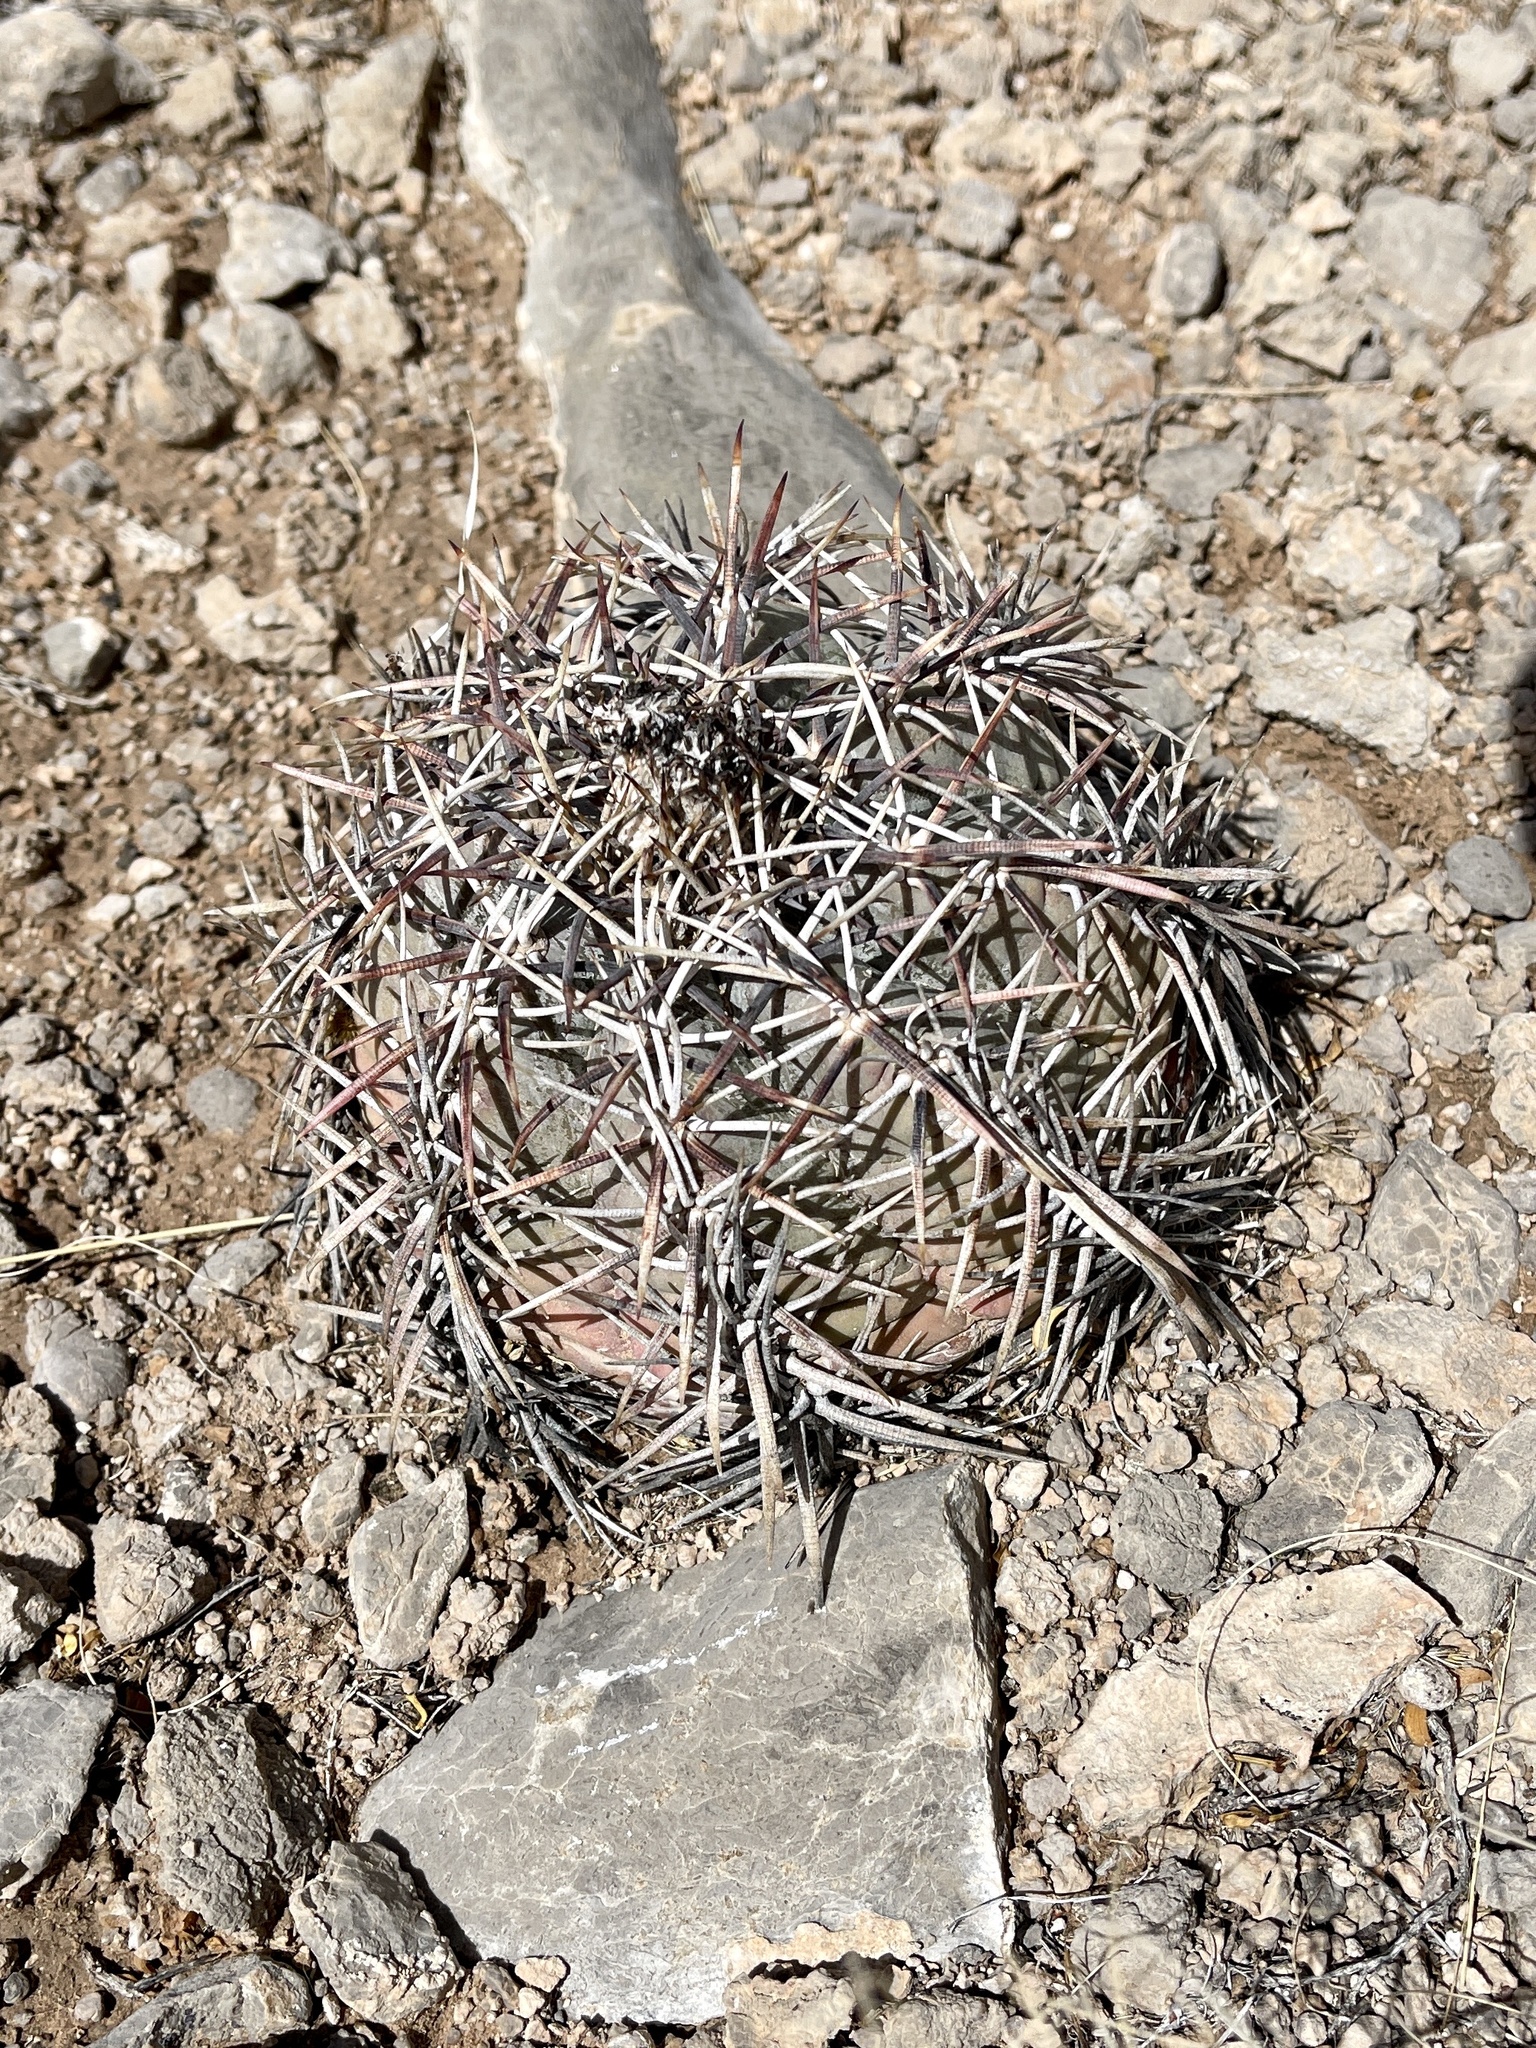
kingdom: Plantae
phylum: Tracheophyta
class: Magnoliopsida
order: Caryophyllales
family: Cactaceae
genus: Echinocactus
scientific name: Echinocactus horizonthalonius
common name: Devilshead
